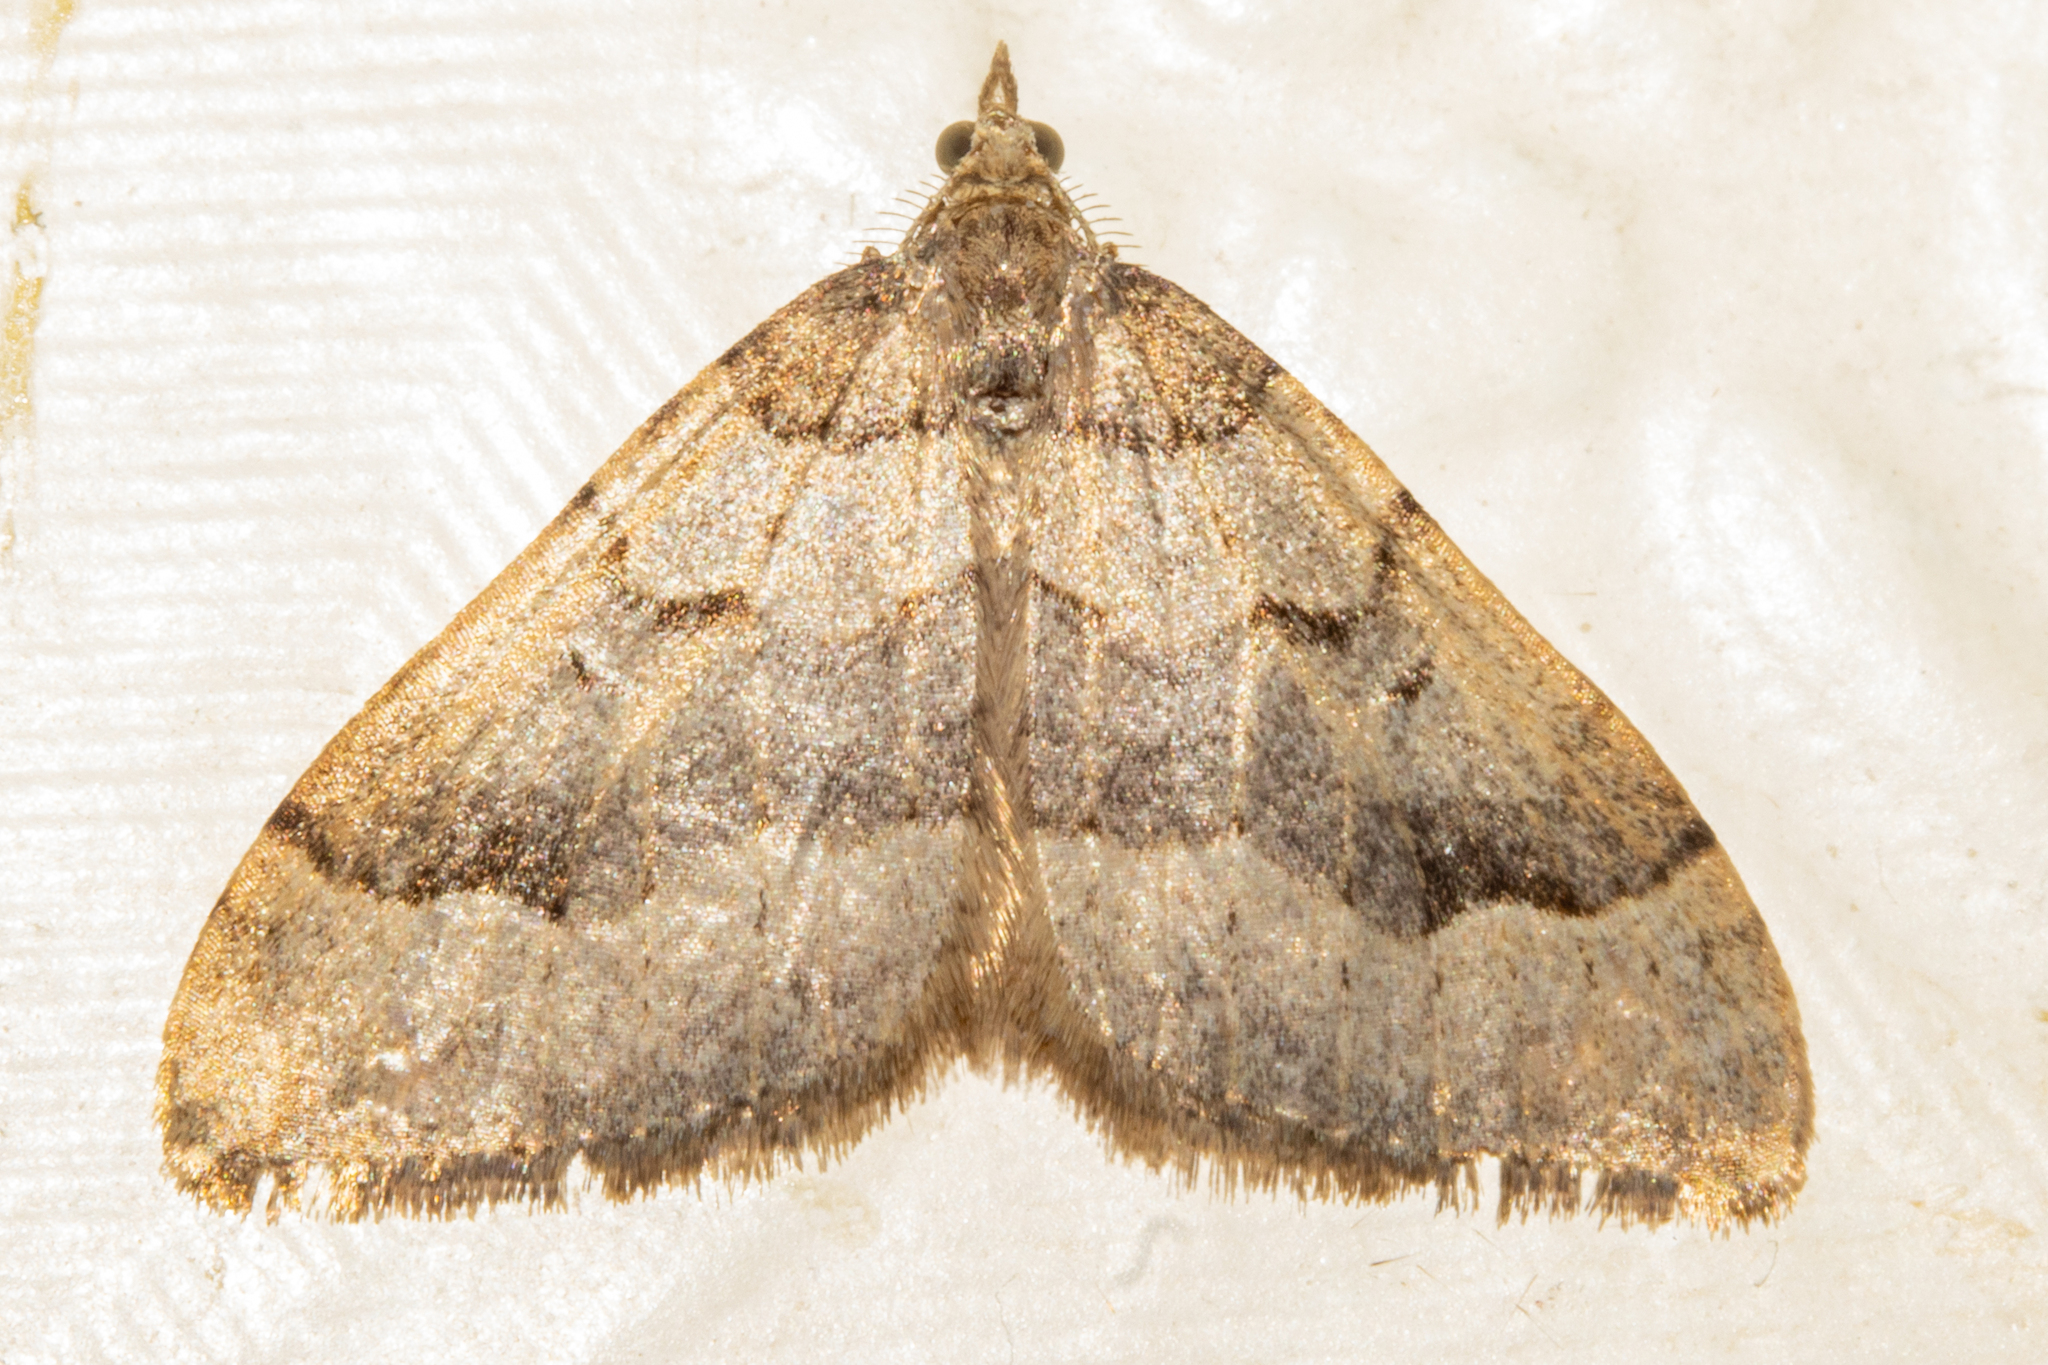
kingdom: Animalia
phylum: Arthropoda
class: Insecta
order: Lepidoptera
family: Geometridae
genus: Epyaxa
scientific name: Epyaxa rosearia
